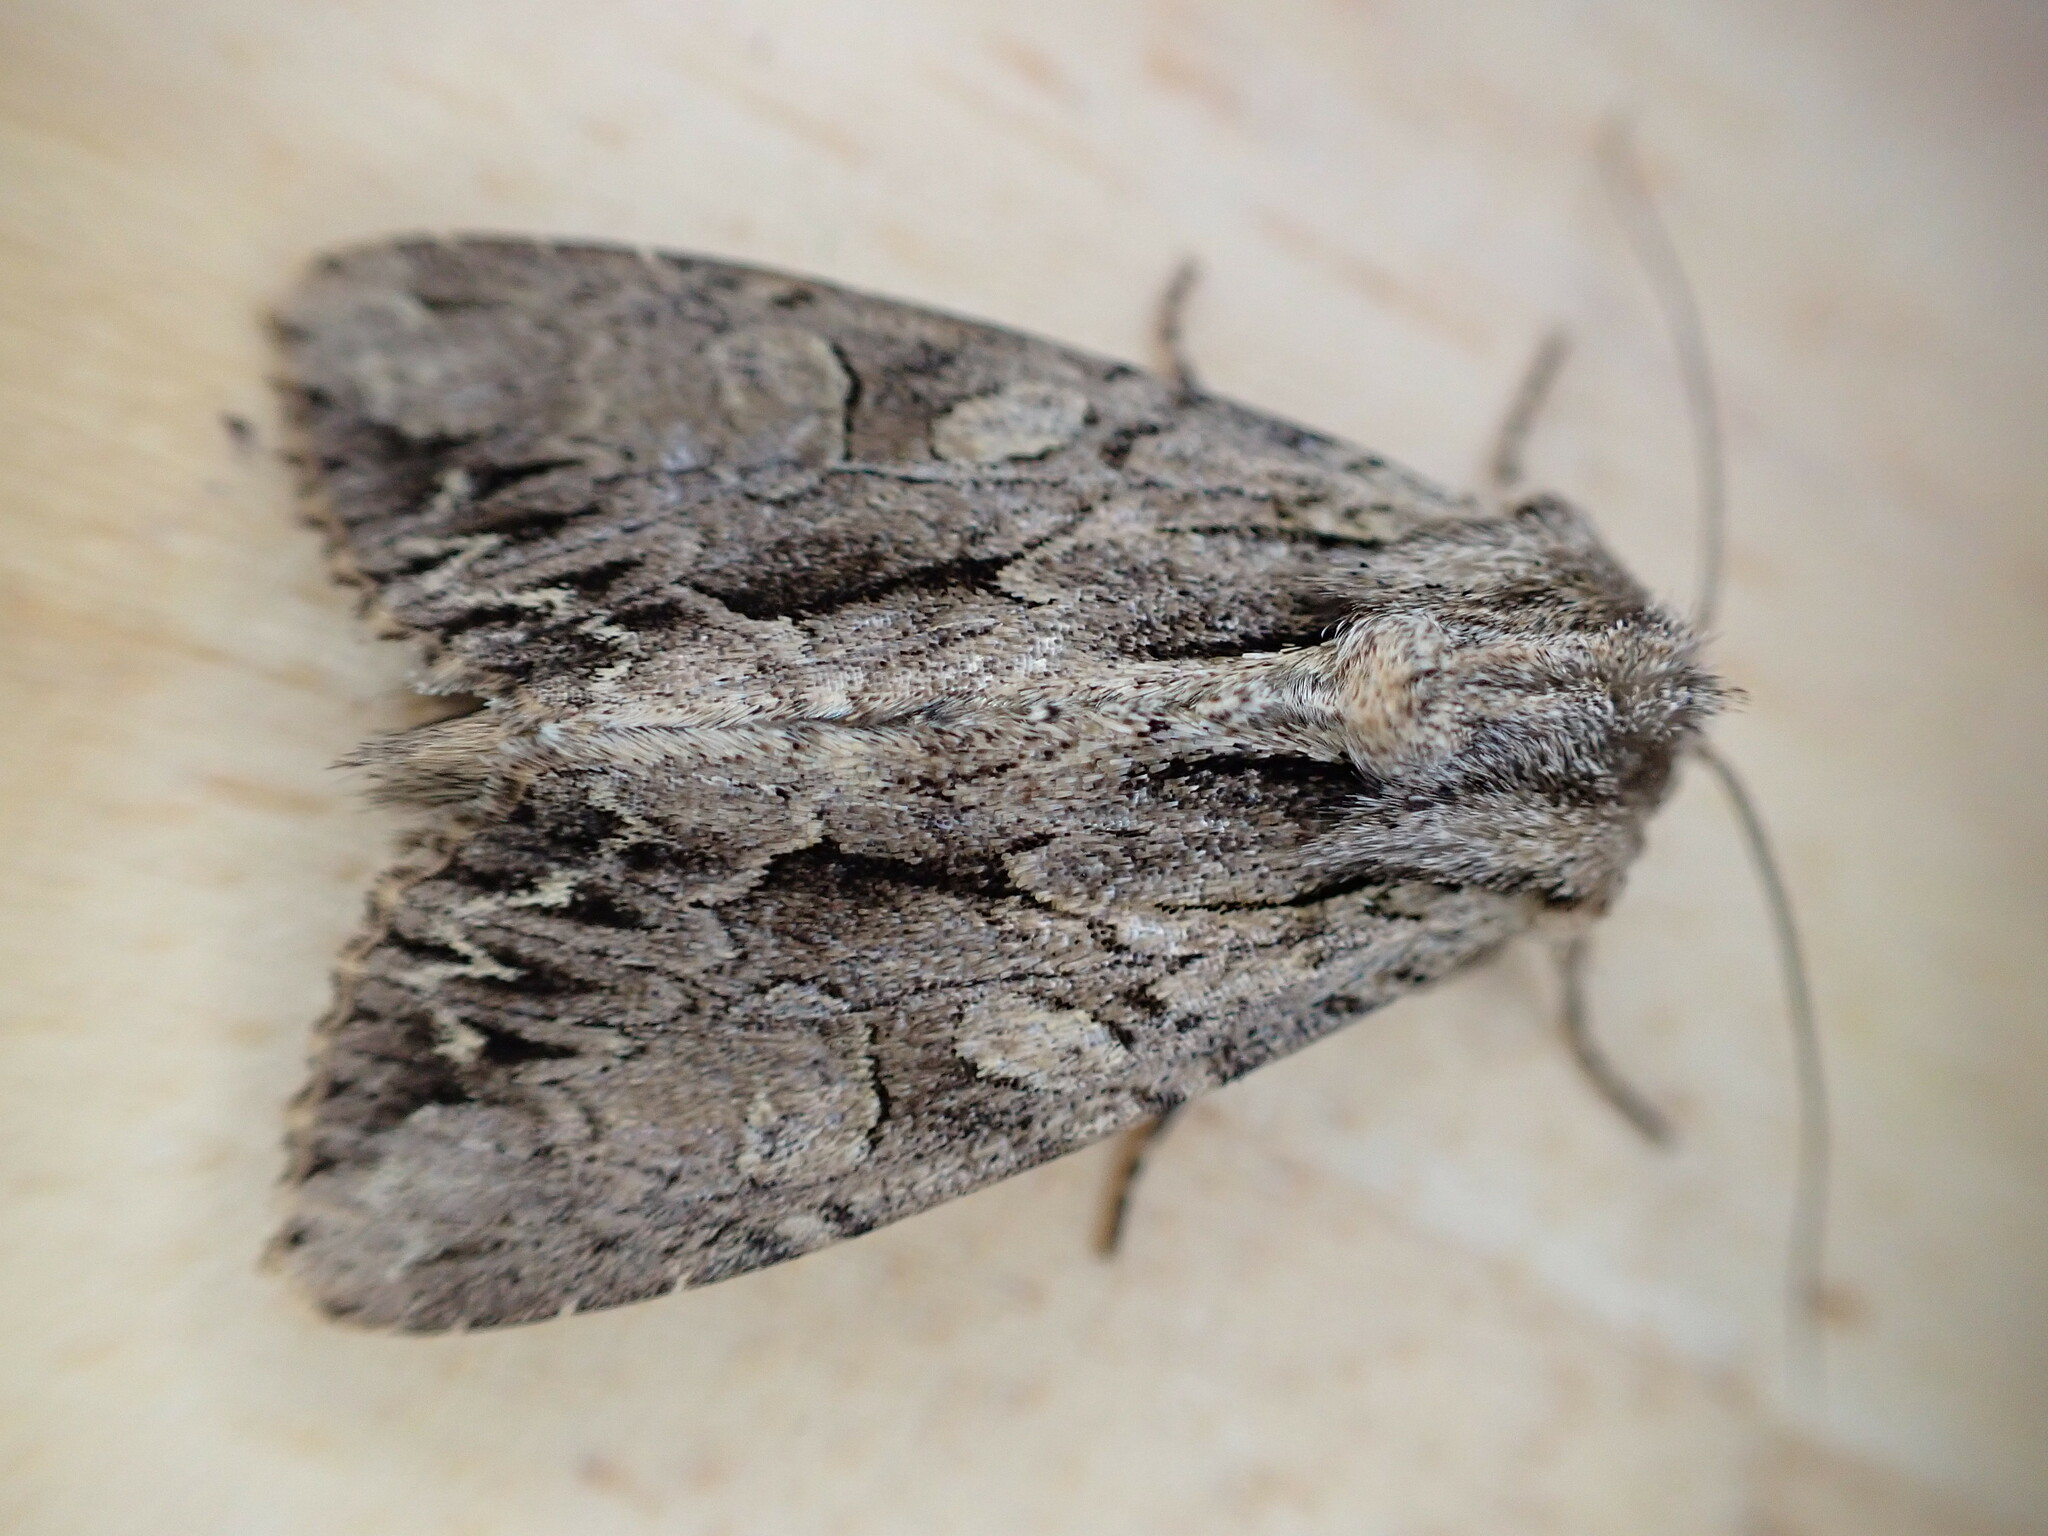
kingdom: Animalia
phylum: Arthropoda
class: Insecta
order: Lepidoptera
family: Noctuidae
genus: Apamea
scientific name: Apamea monoglypha
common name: Dark arches
